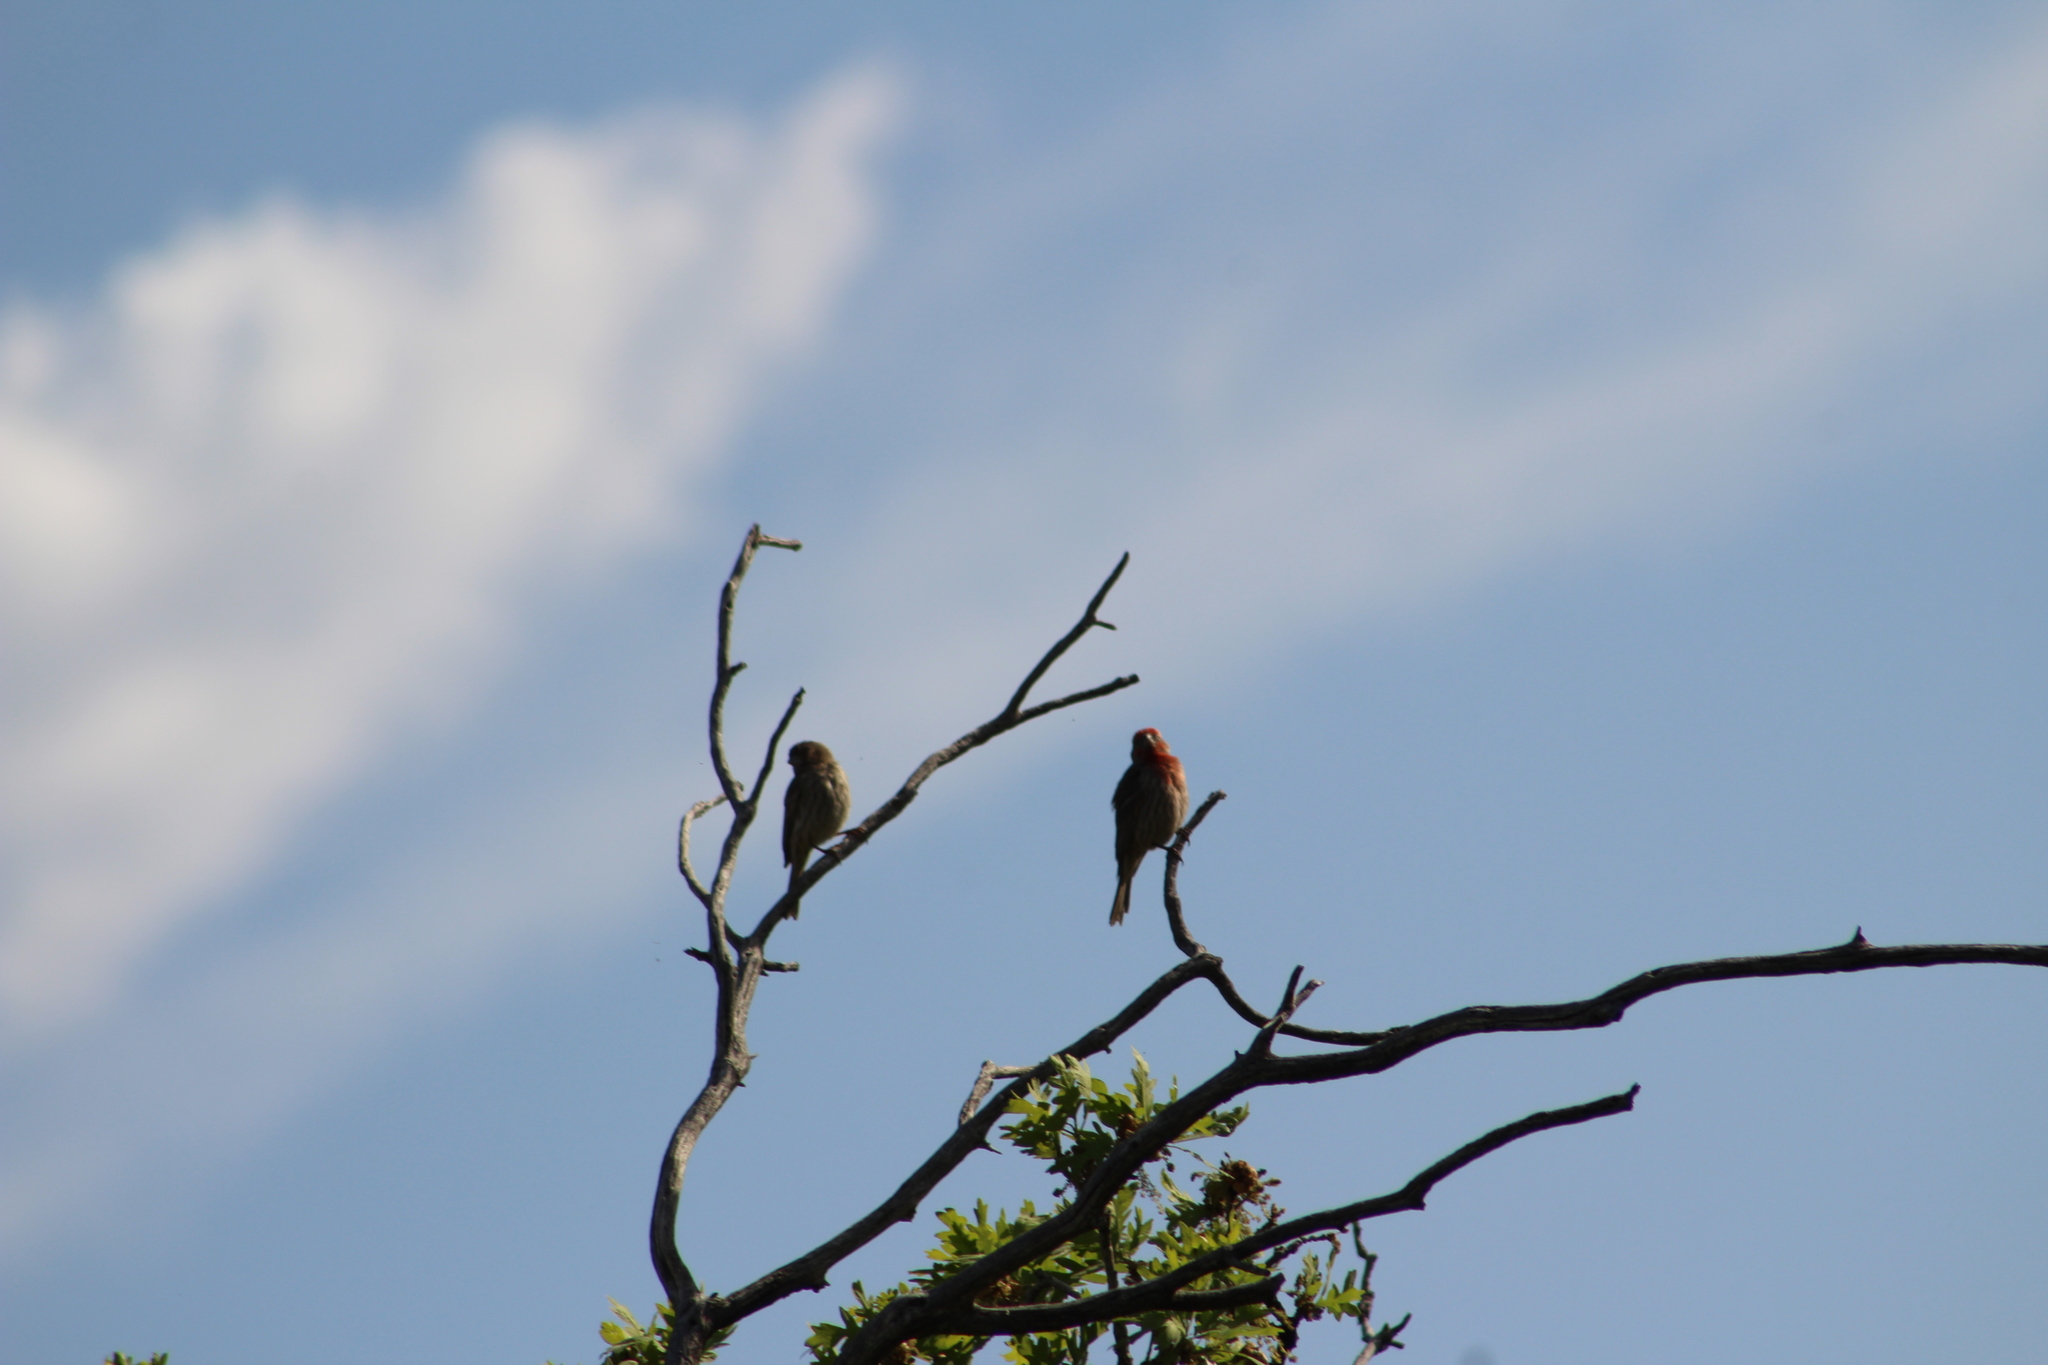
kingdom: Animalia
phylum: Chordata
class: Aves
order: Passeriformes
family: Fringillidae
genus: Haemorhous
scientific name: Haemorhous mexicanus
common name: House finch
